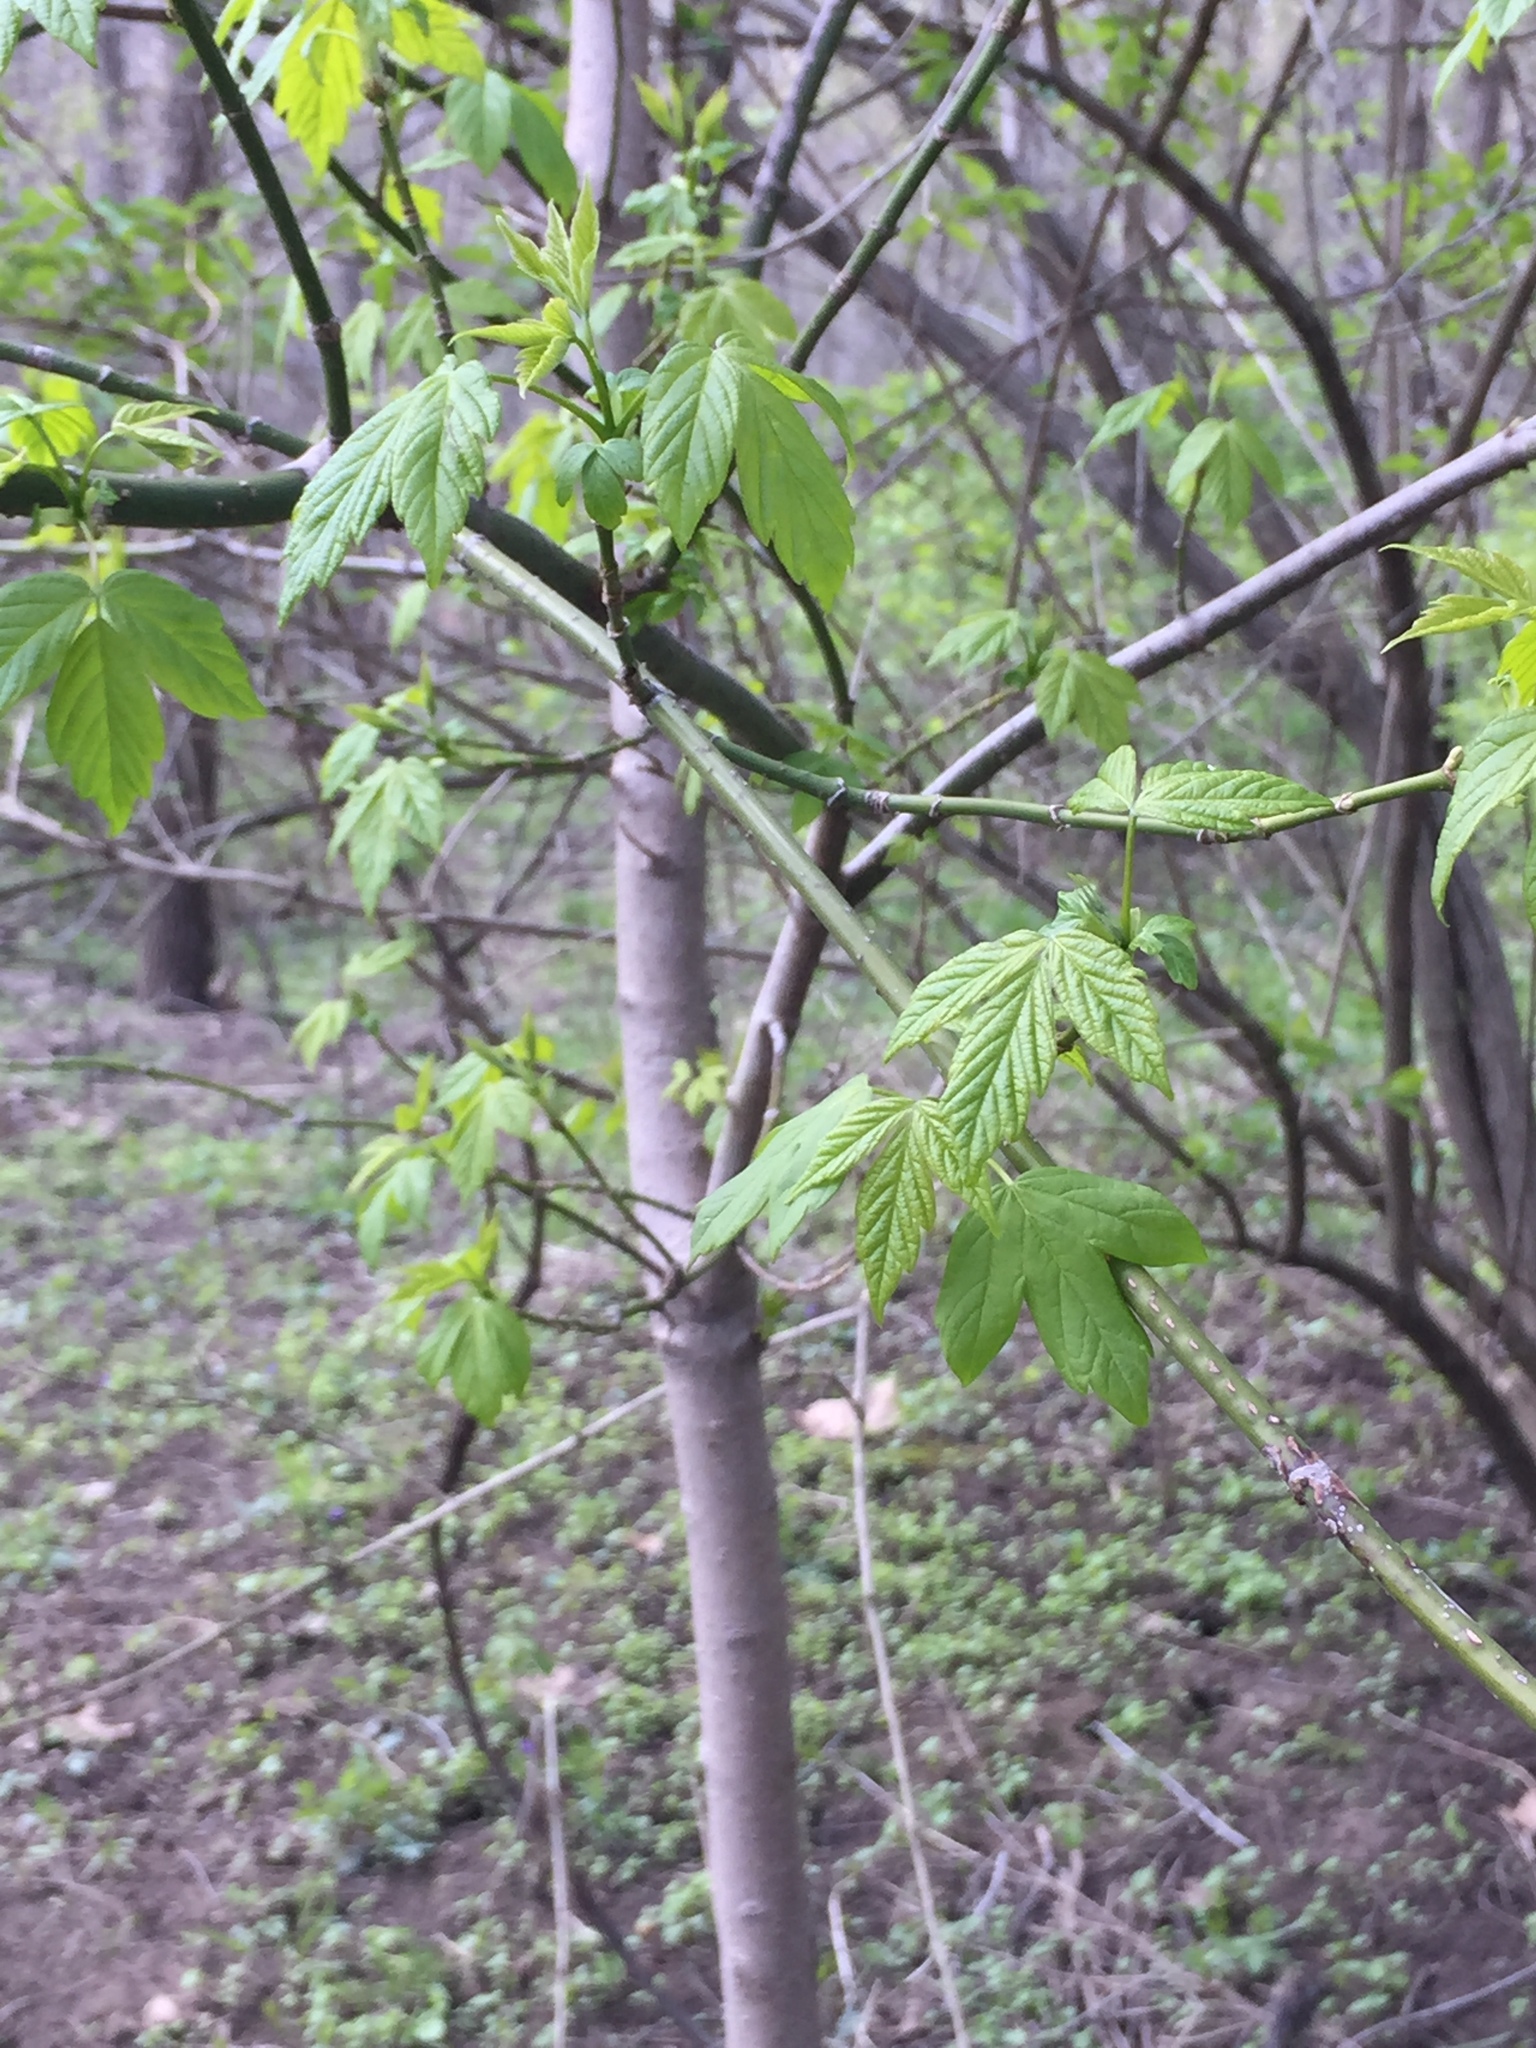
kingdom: Plantae
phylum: Tracheophyta
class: Magnoliopsida
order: Sapindales
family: Sapindaceae
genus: Acer
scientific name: Acer negundo
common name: Ashleaf maple
